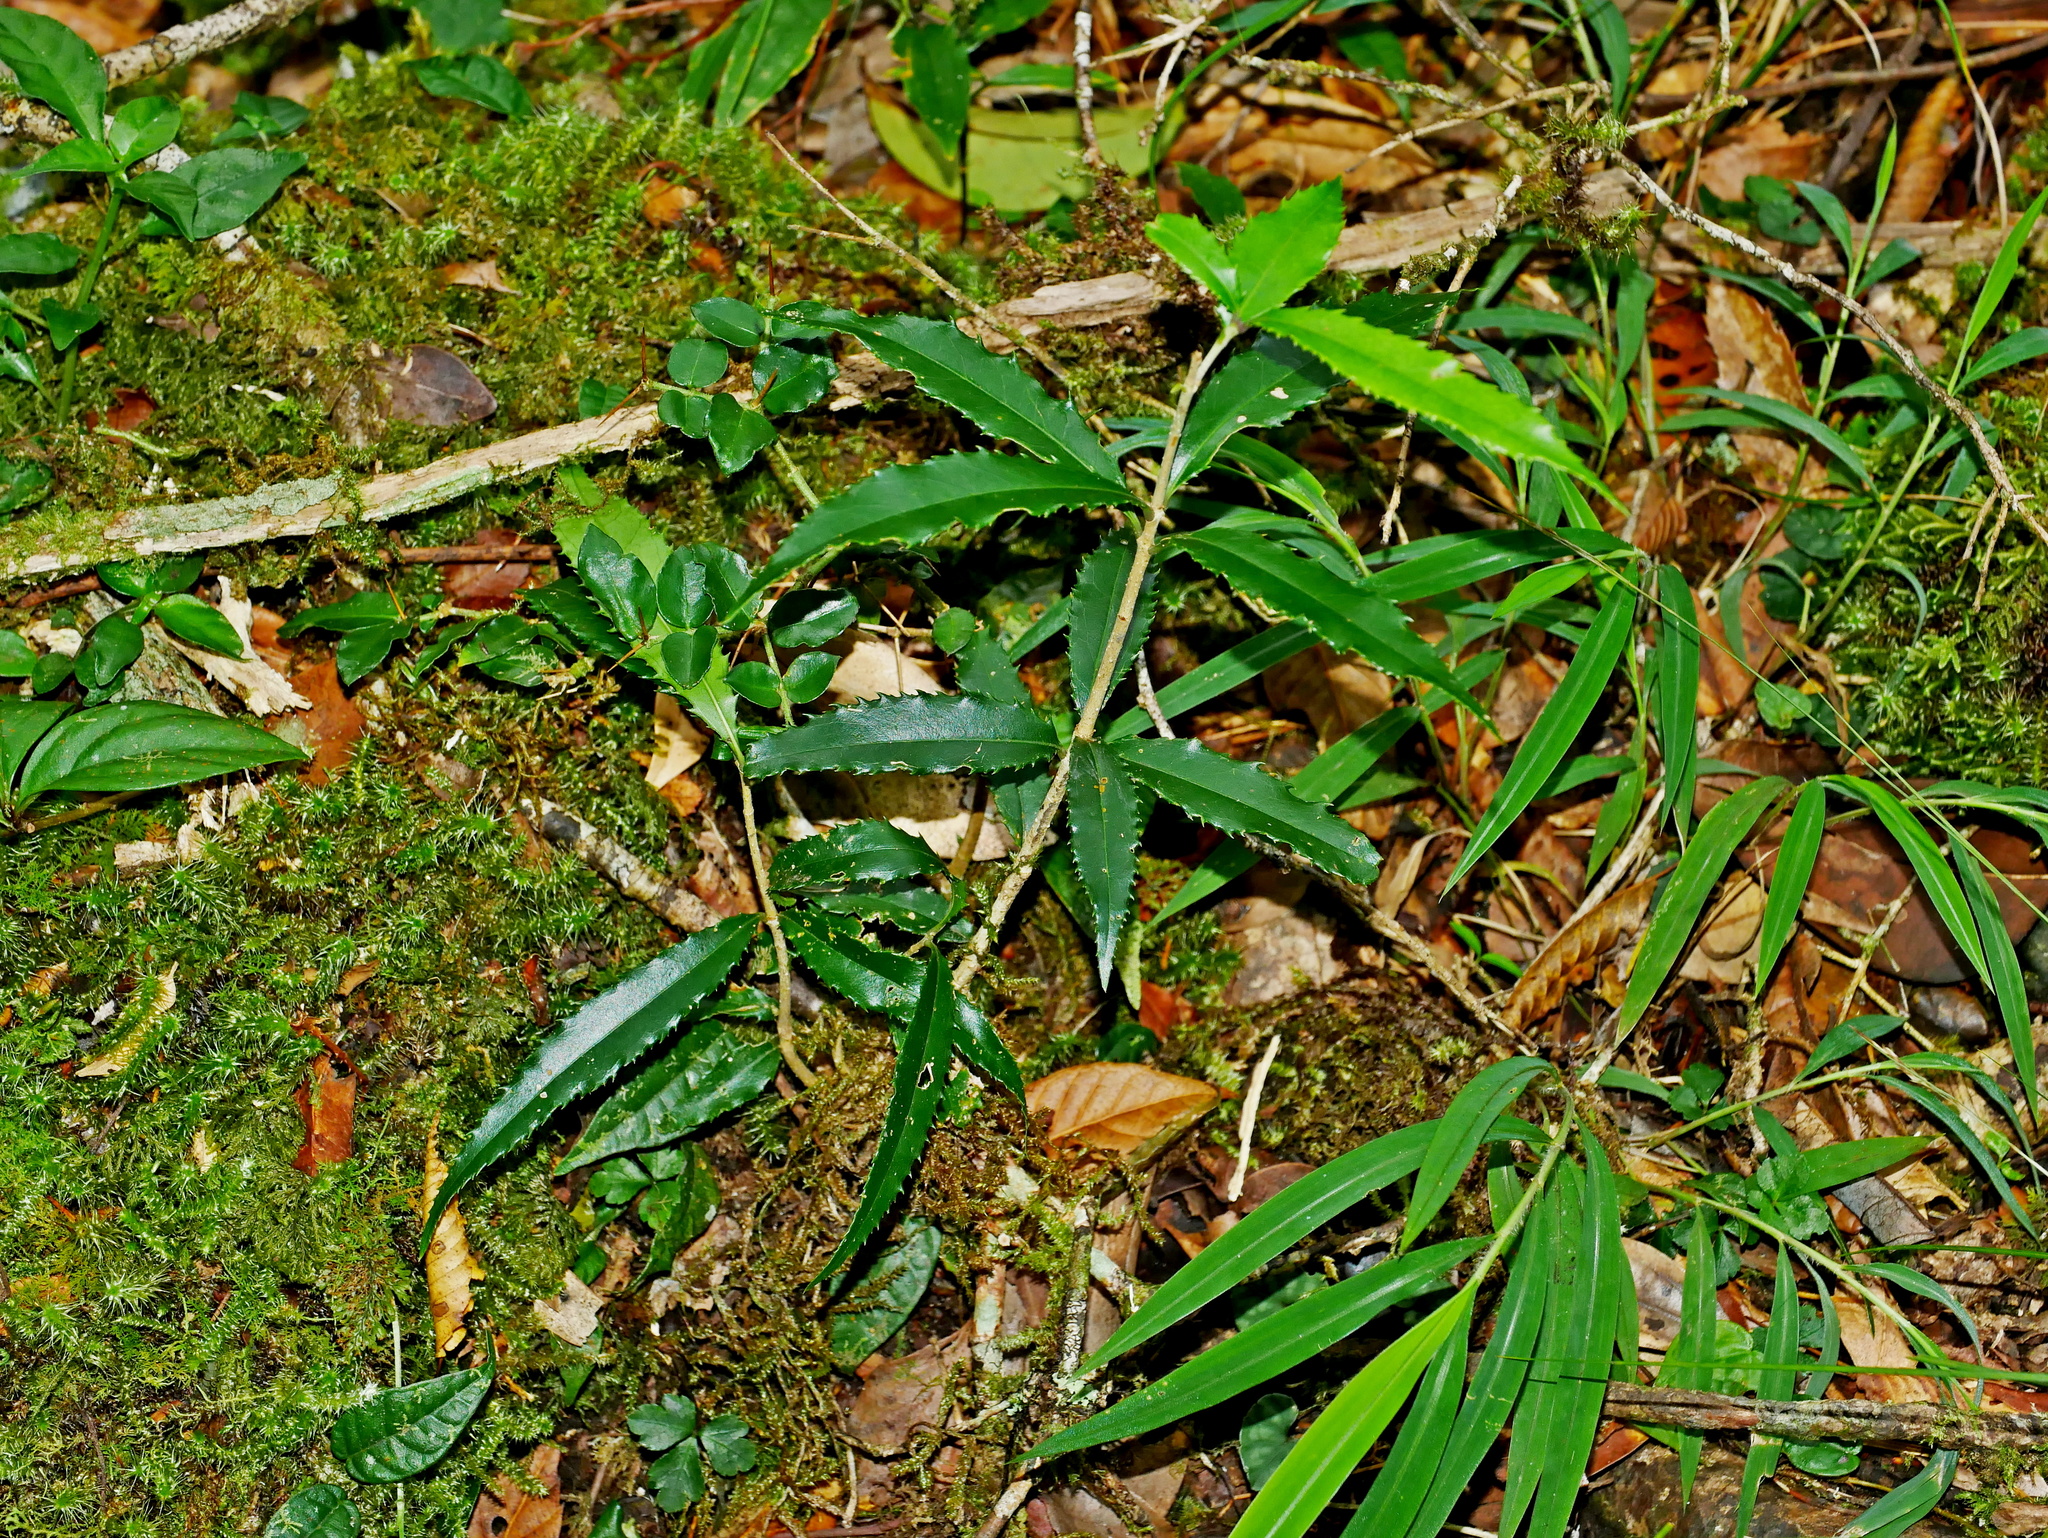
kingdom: Plantae
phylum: Tracheophyta
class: Magnoliopsida
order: Lamiales
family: Oleaceae
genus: Osmanthus
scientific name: Osmanthus lanceolatus
